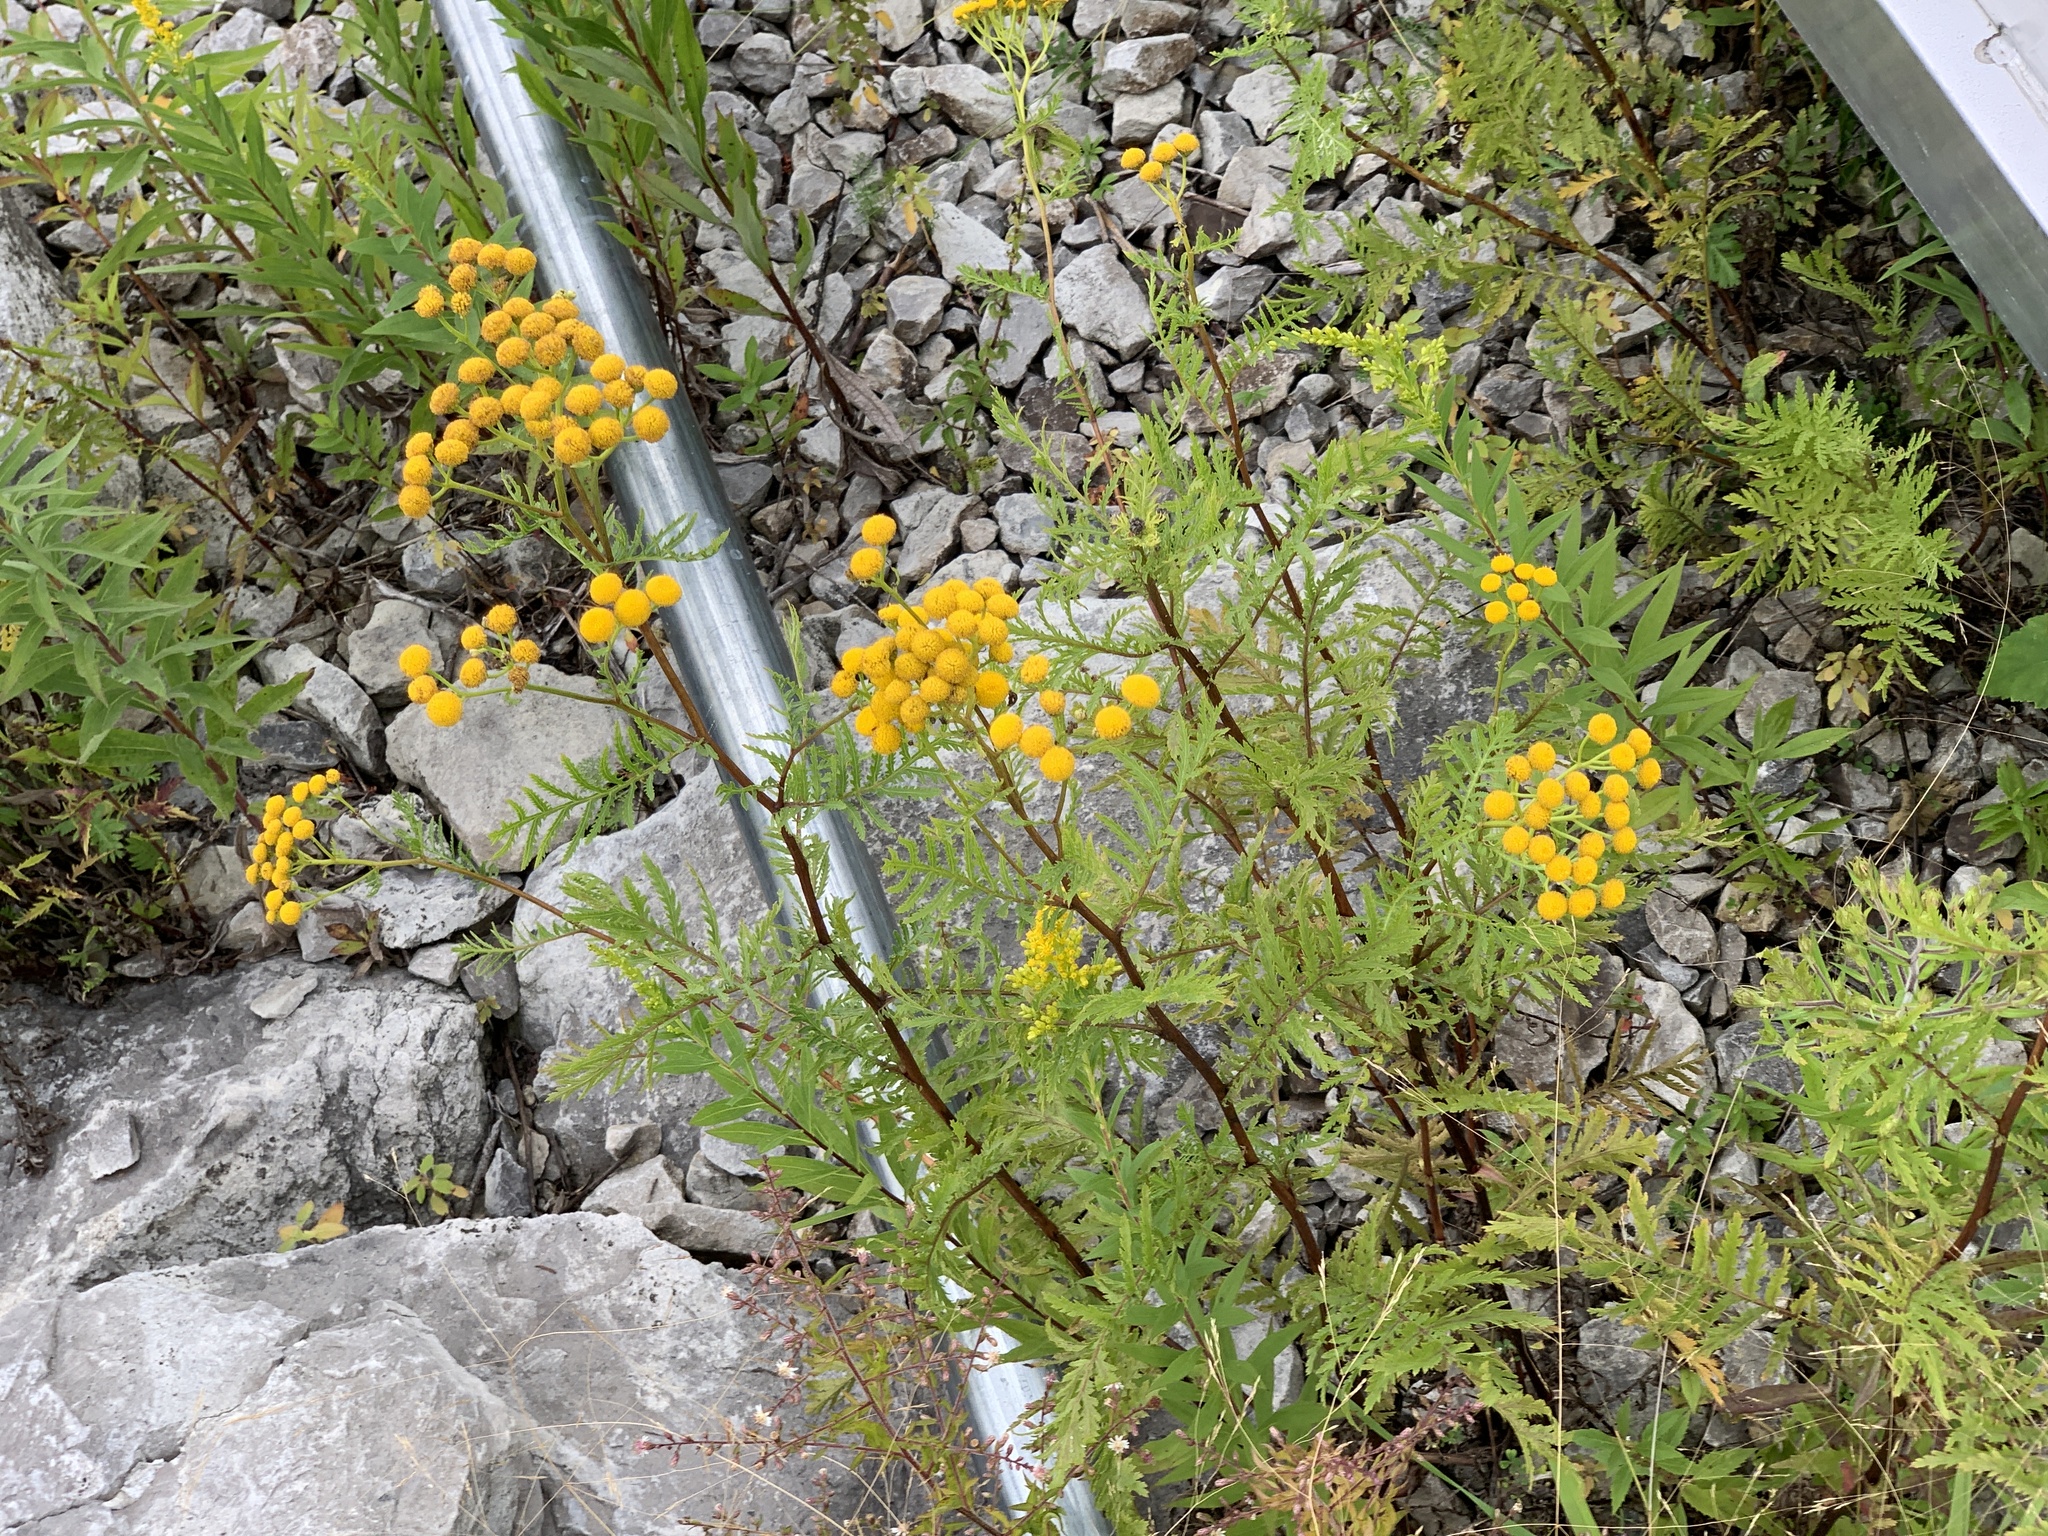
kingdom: Plantae
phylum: Tracheophyta
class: Magnoliopsida
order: Asterales
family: Asteraceae
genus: Tanacetum
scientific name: Tanacetum vulgare
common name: Common tansy
